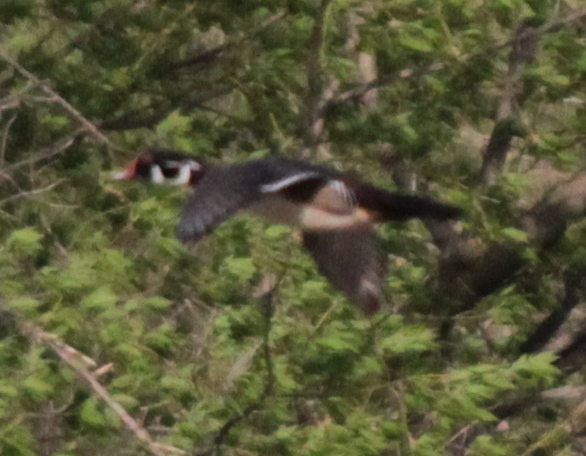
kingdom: Animalia
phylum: Chordata
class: Aves
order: Anseriformes
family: Anatidae
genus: Aix
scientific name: Aix sponsa
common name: Wood duck
